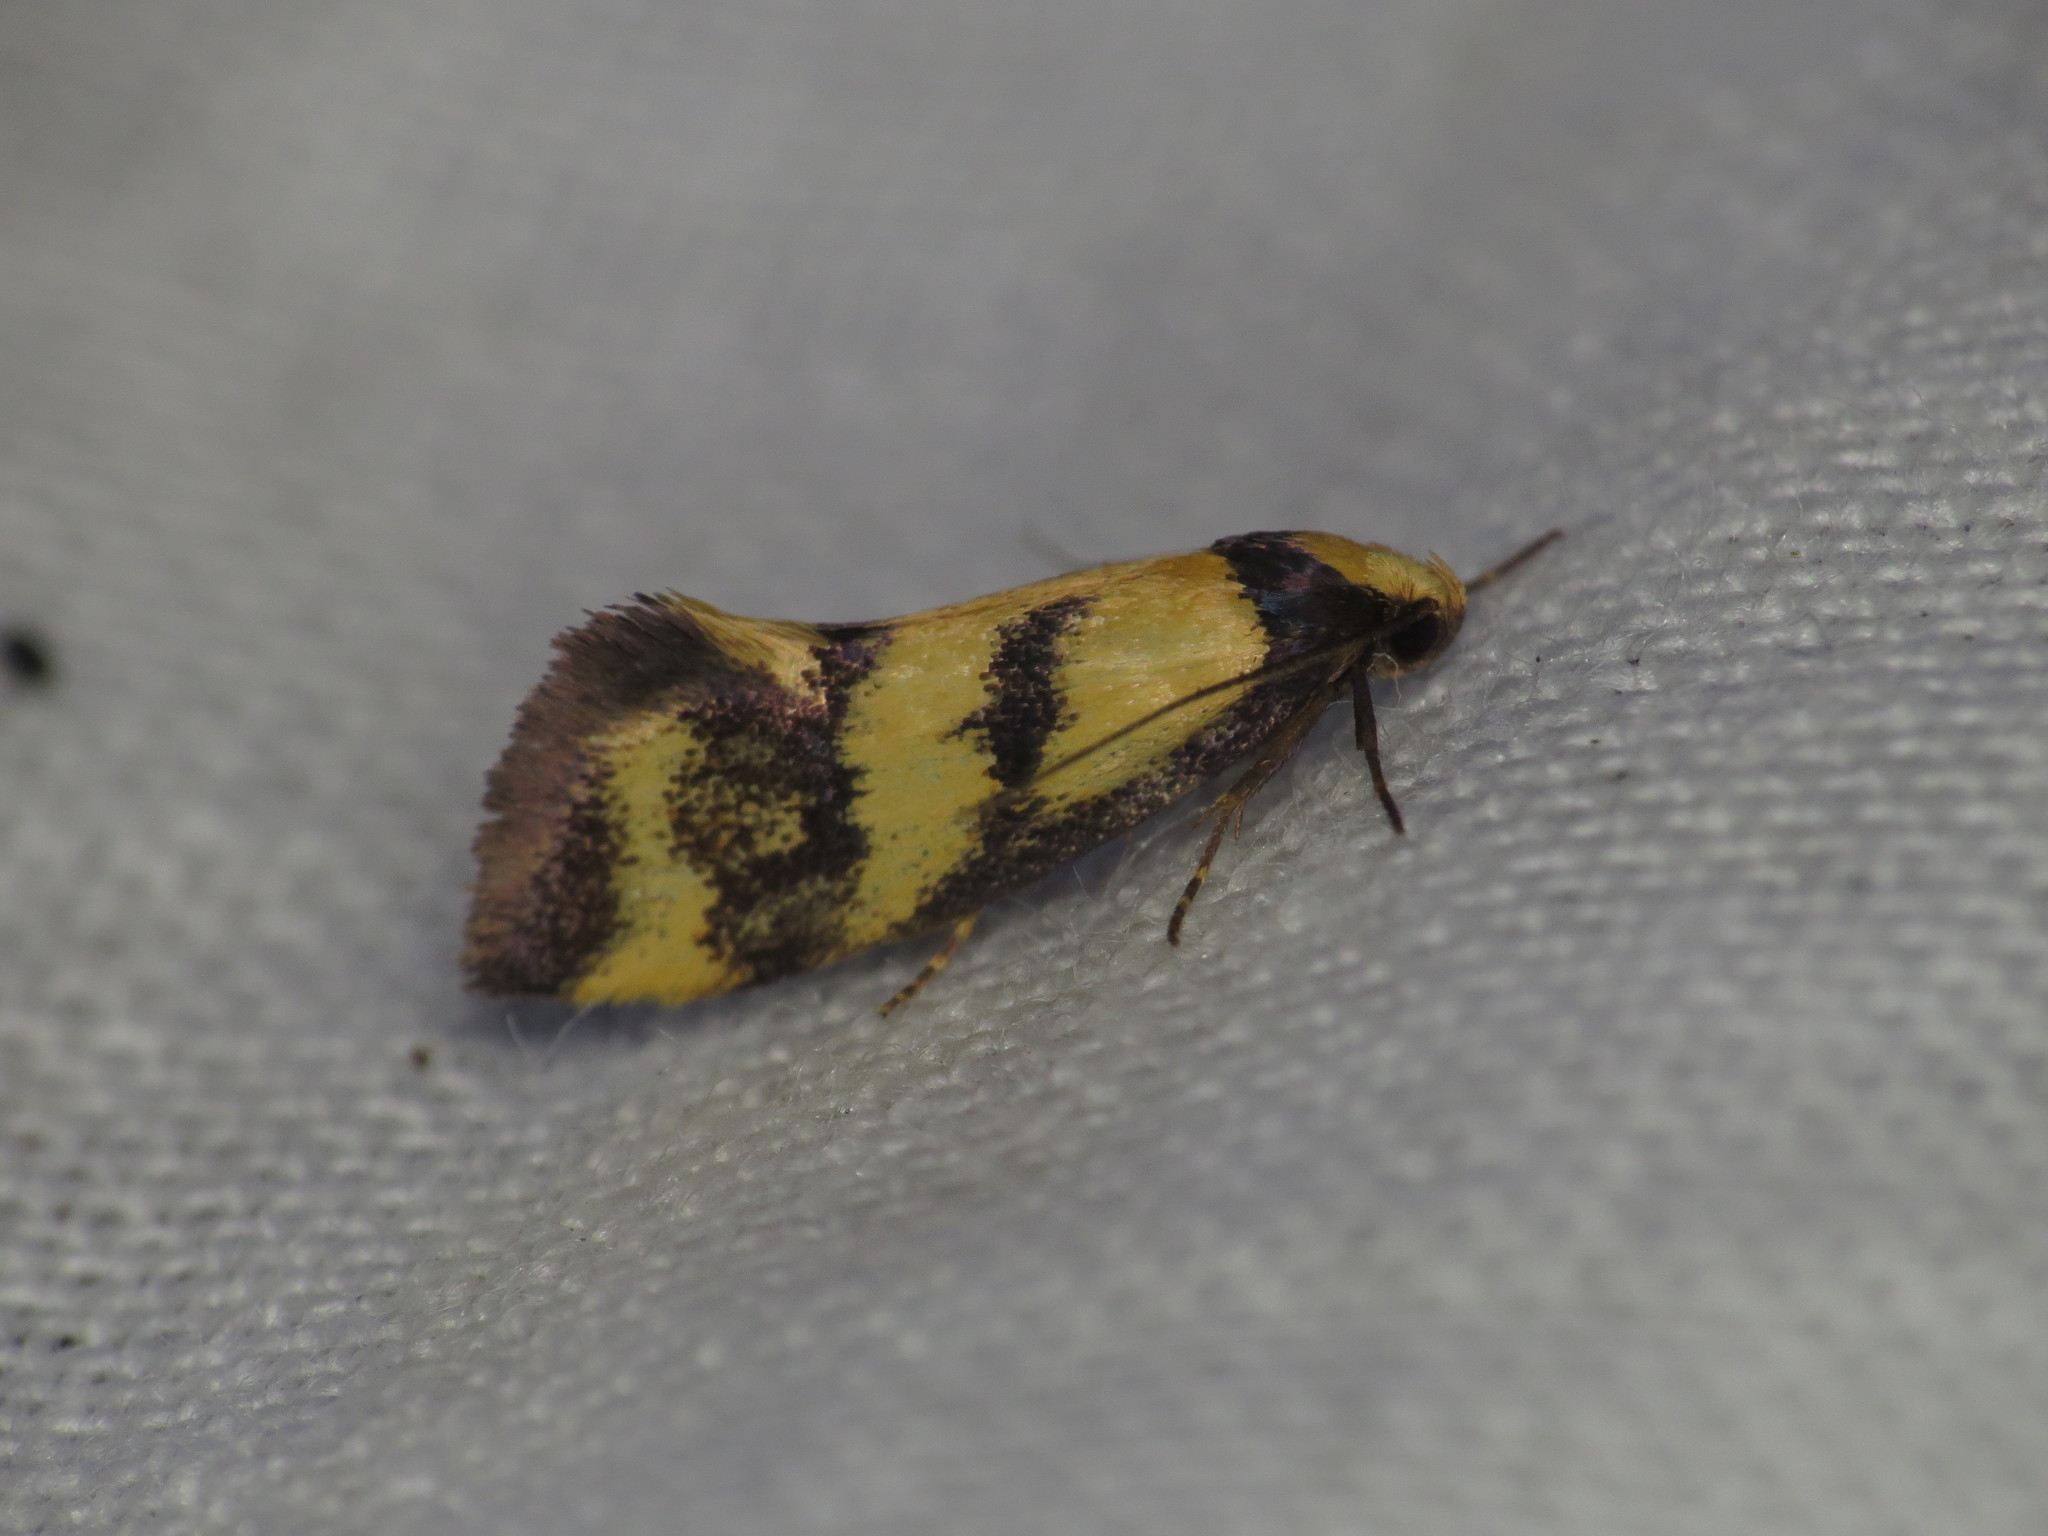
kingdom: Animalia
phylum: Arthropoda
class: Insecta
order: Lepidoptera
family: Oecophoridae
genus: Olbonoma
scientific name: Olbonoma triptycha
